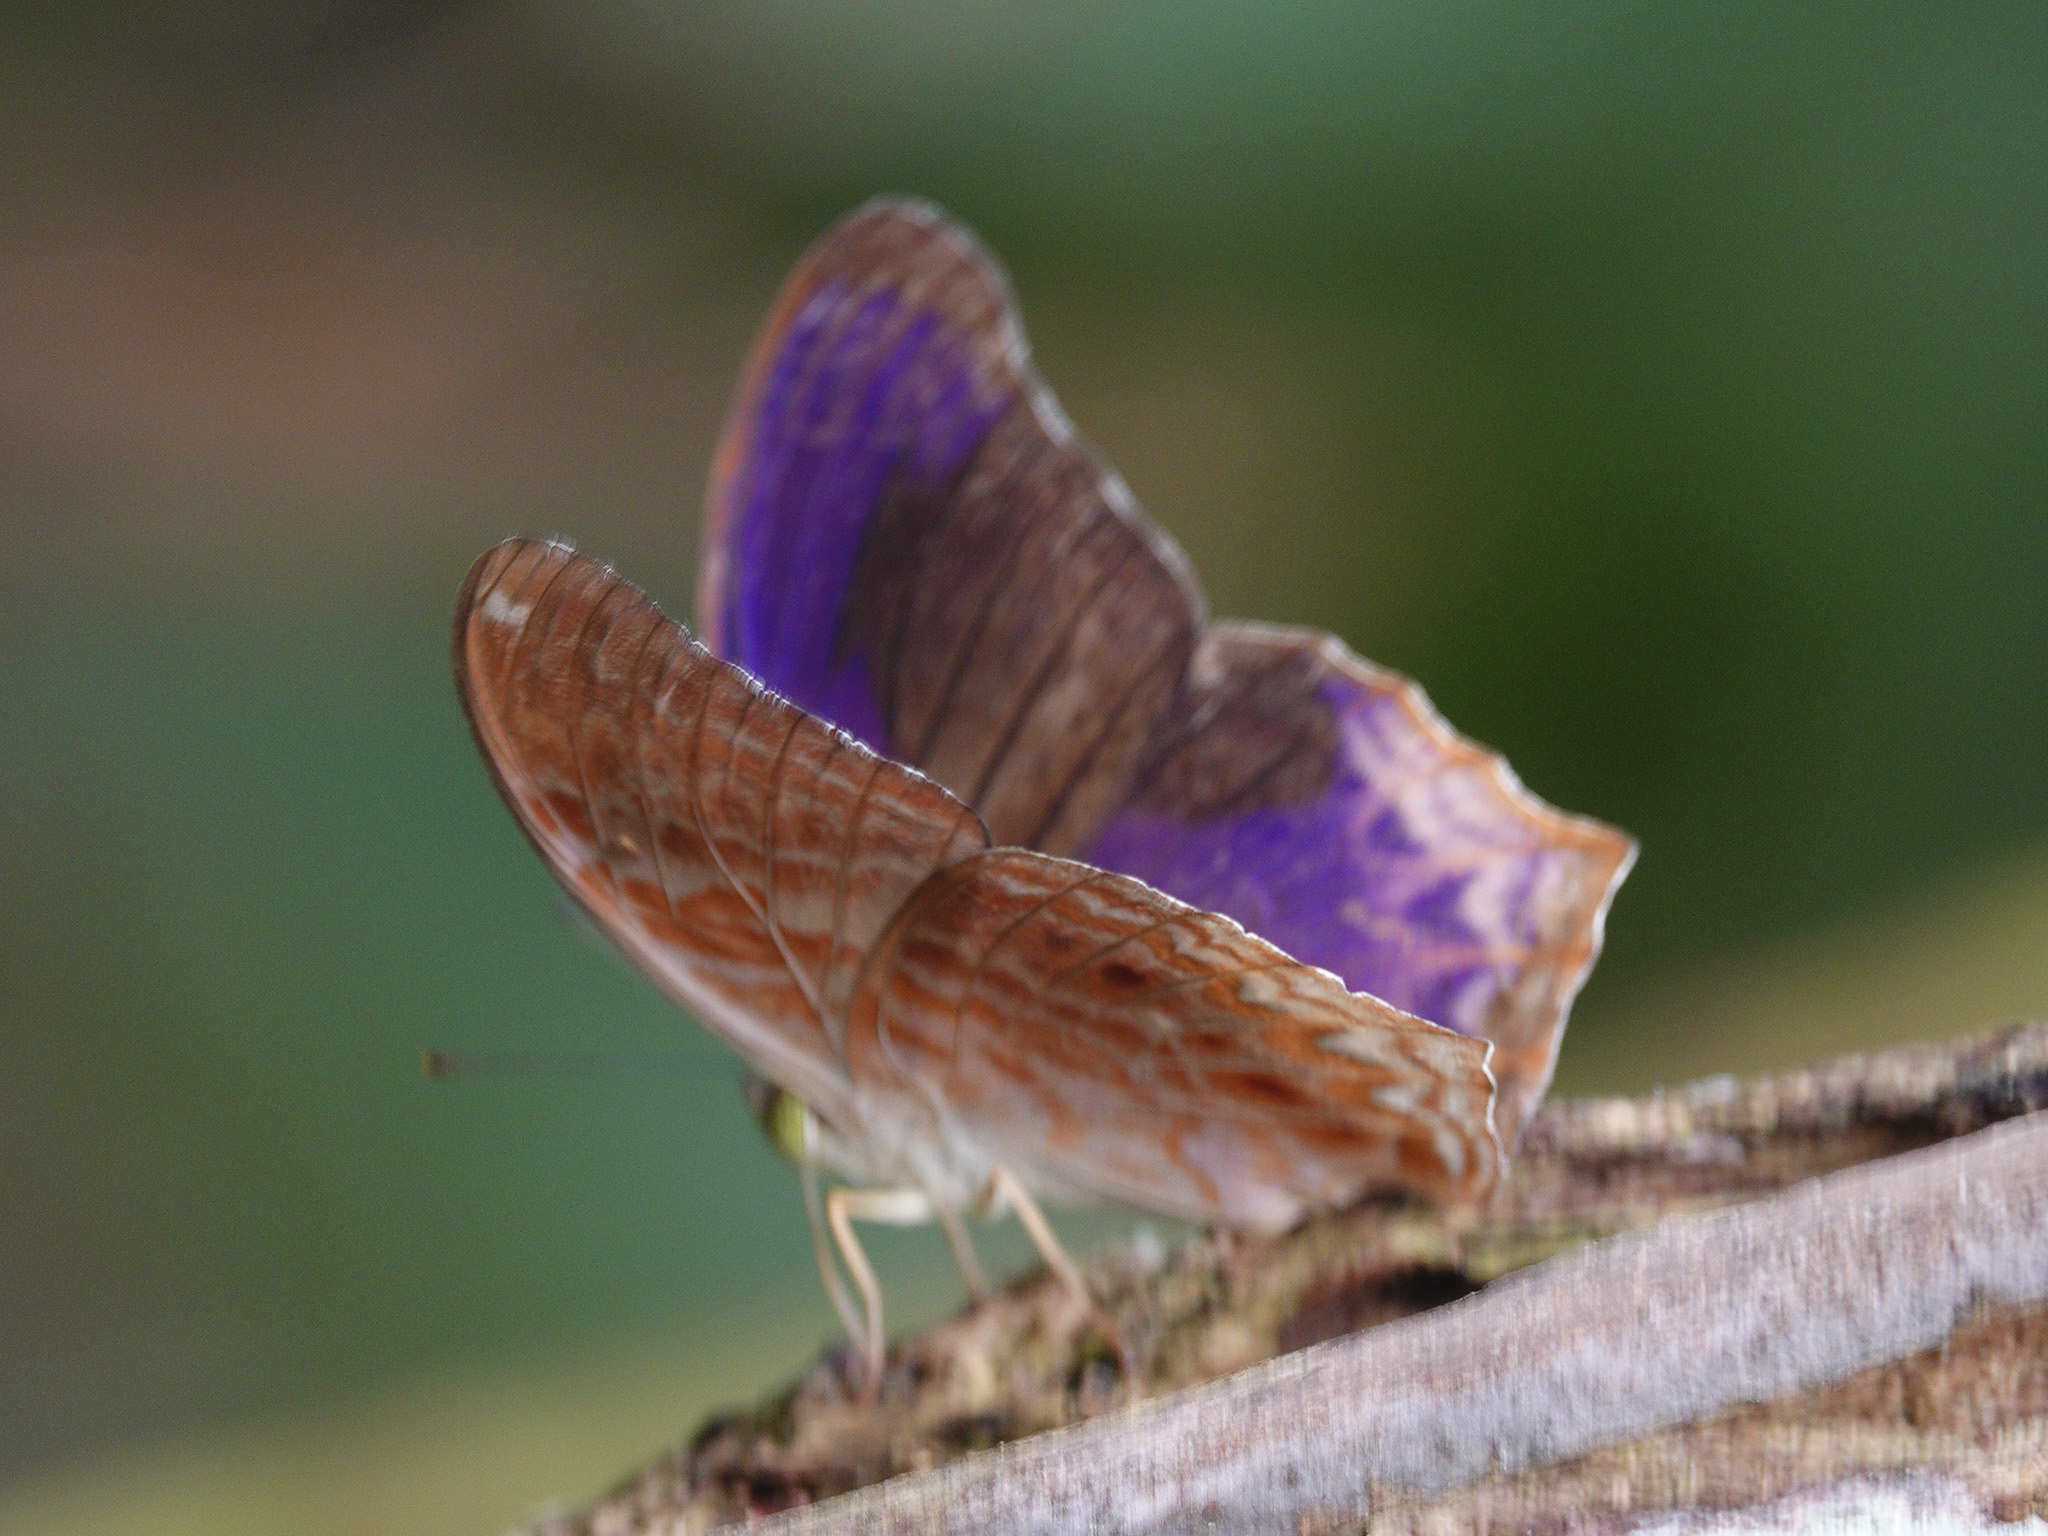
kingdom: Animalia
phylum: Arthropoda
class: Insecta
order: Lepidoptera
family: Nymphalidae
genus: Terinos
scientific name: Terinos clarissa
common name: Malayan assyrian
